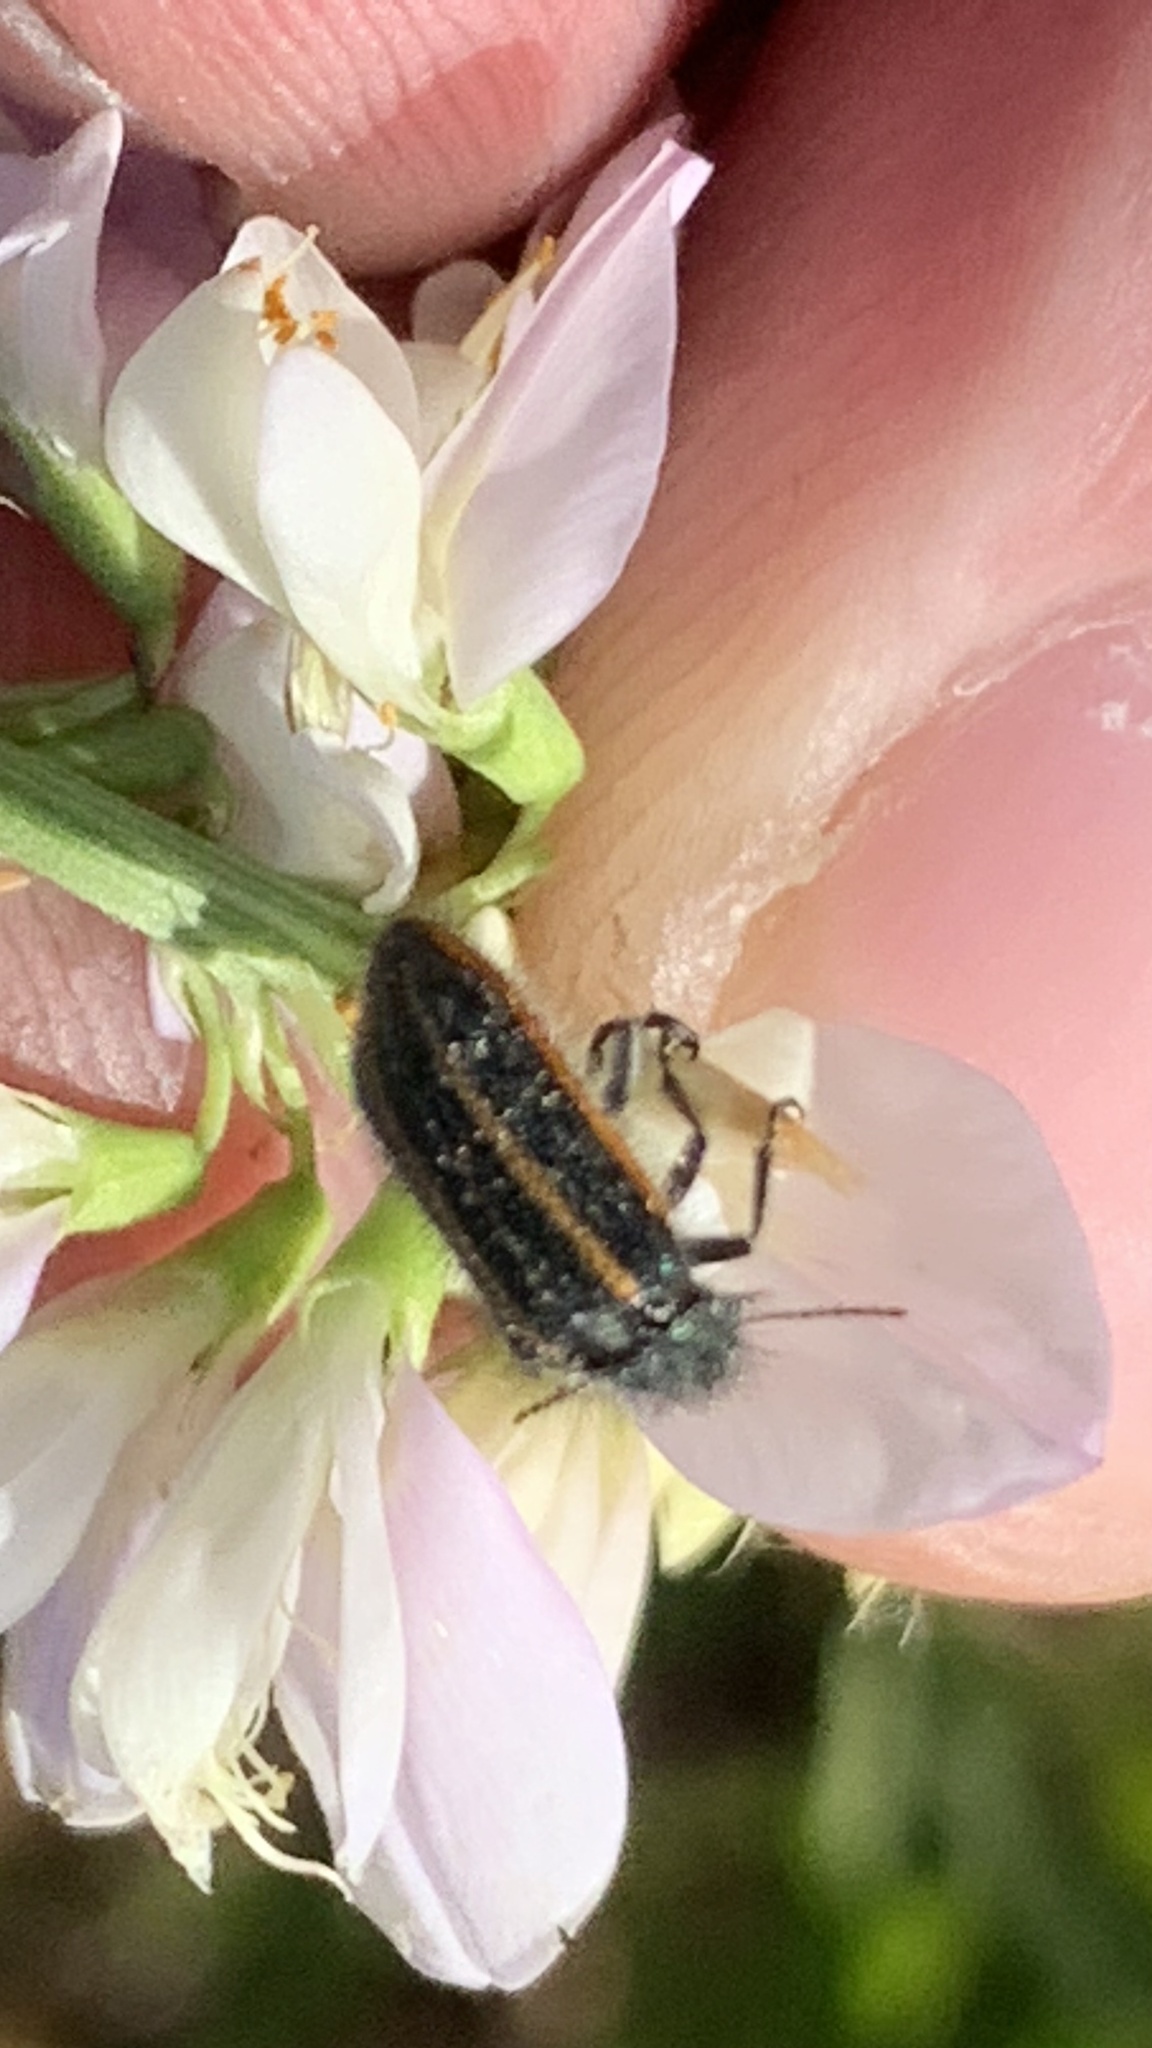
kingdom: Animalia
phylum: Arthropoda
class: Insecta
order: Coleoptera
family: Melyridae
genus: Astylus
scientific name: Astylus
